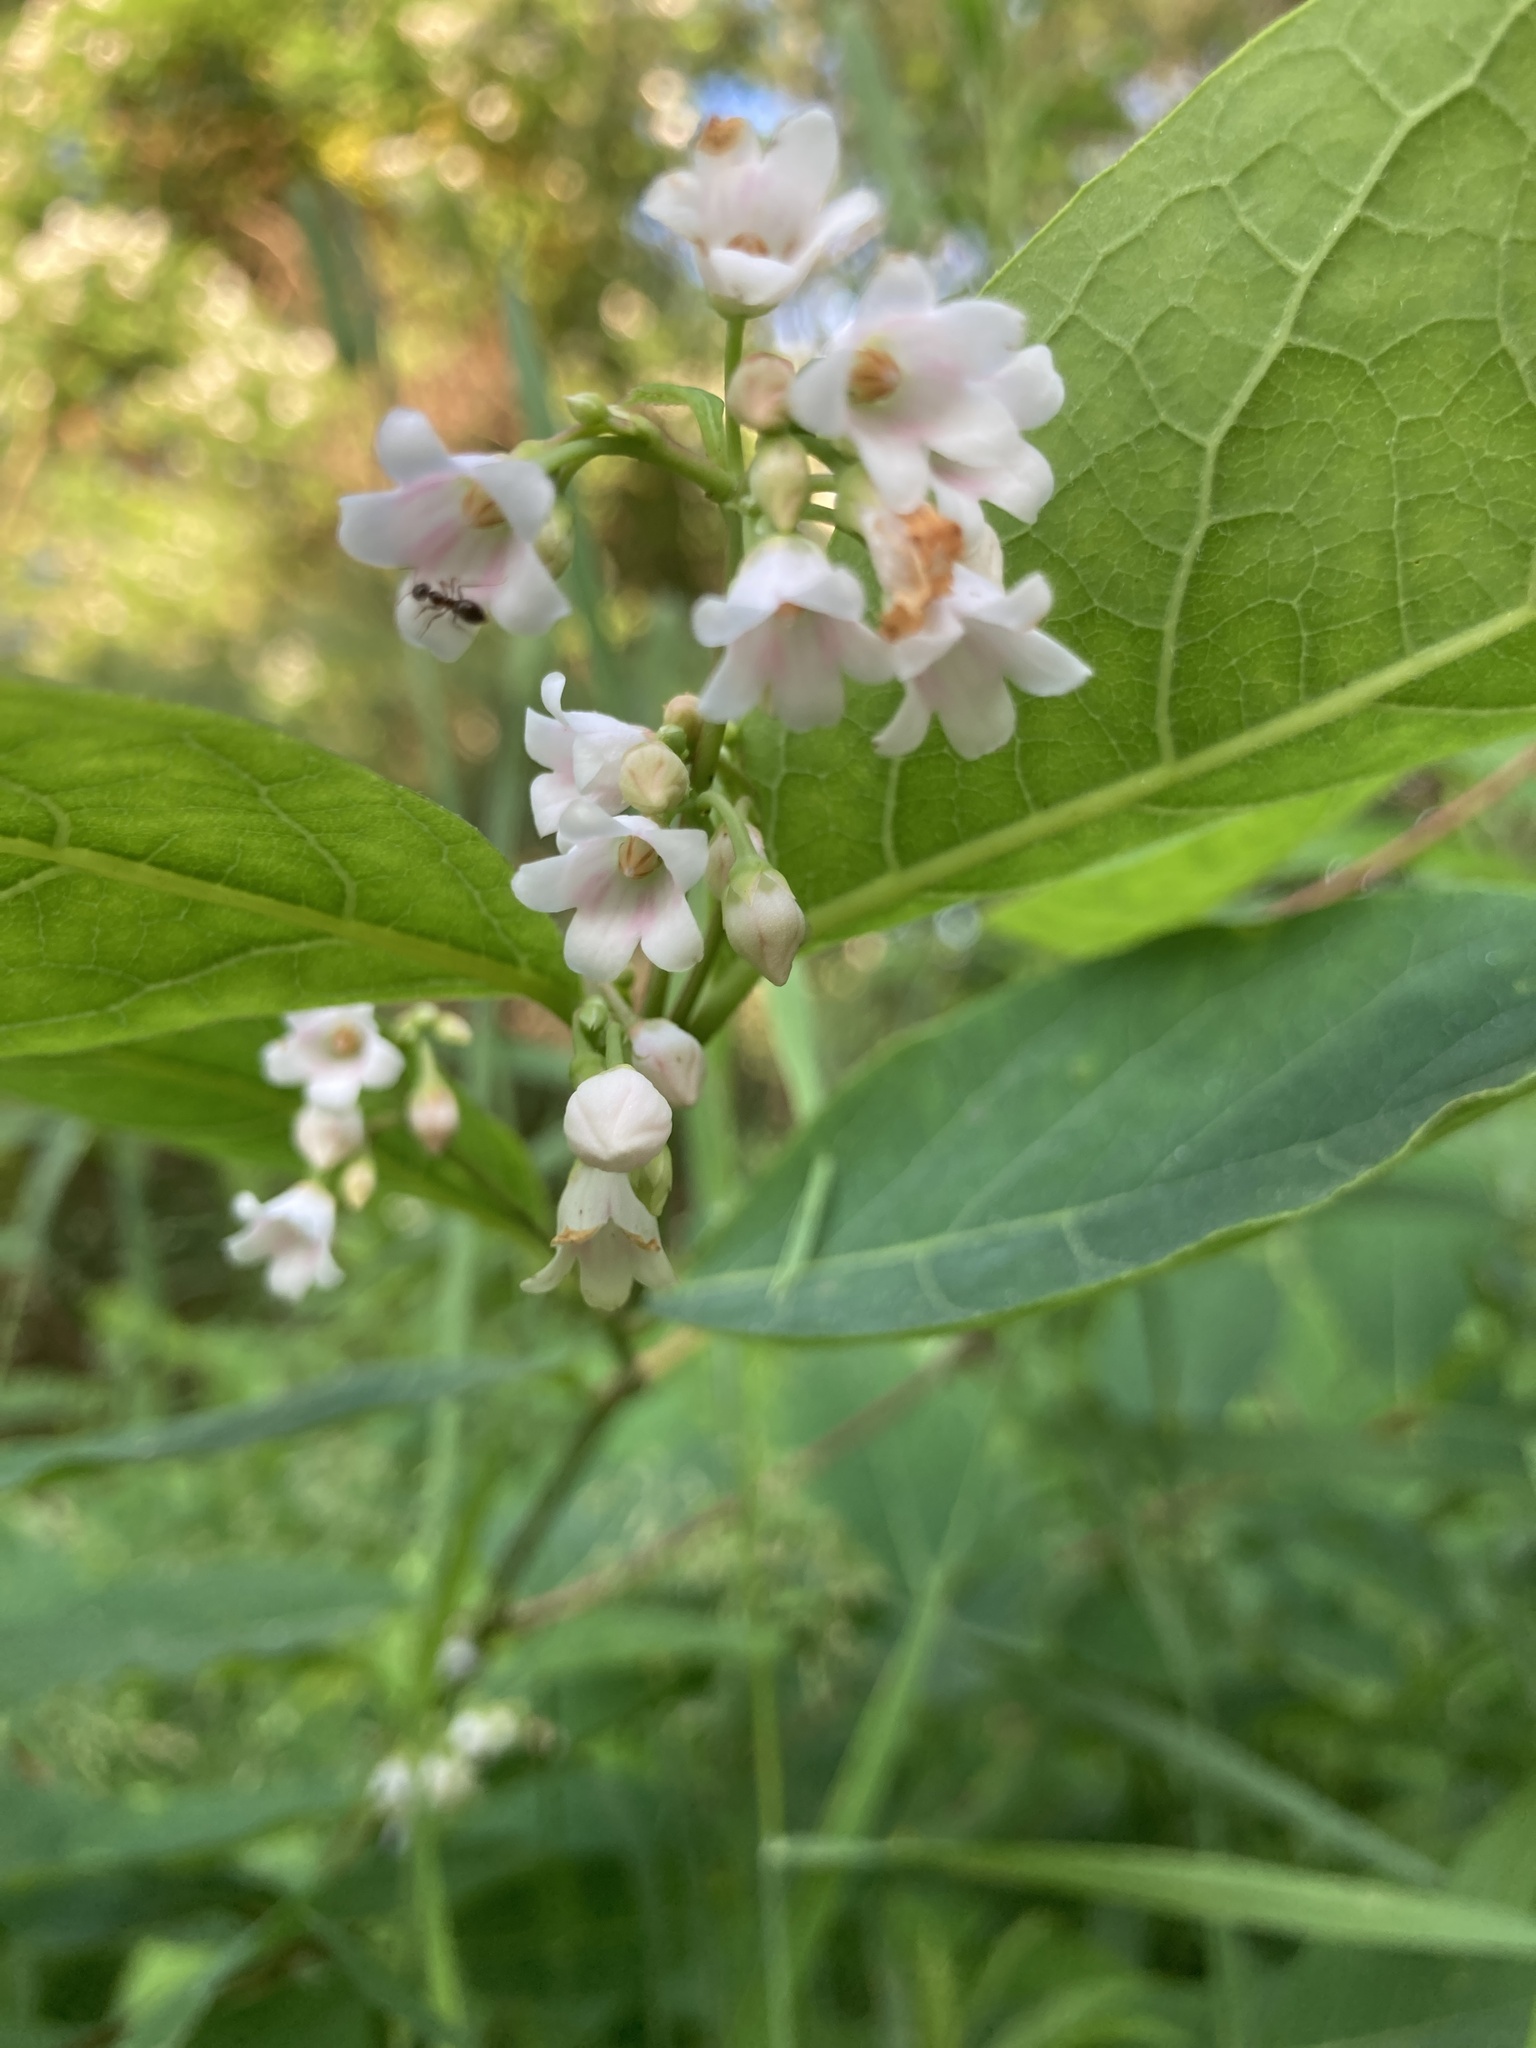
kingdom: Plantae
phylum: Tracheophyta
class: Magnoliopsida
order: Gentianales
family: Apocynaceae
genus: Apocynum
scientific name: Apocynum androsaemifolium
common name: Spreading dogbane
